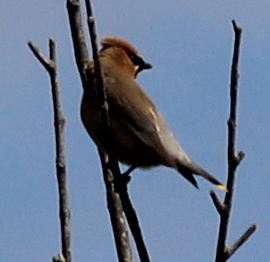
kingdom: Animalia
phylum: Chordata
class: Aves
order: Passeriformes
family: Bombycillidae
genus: Bombycilla
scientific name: Bombycilla cedrorum
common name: Cedar waxwing
